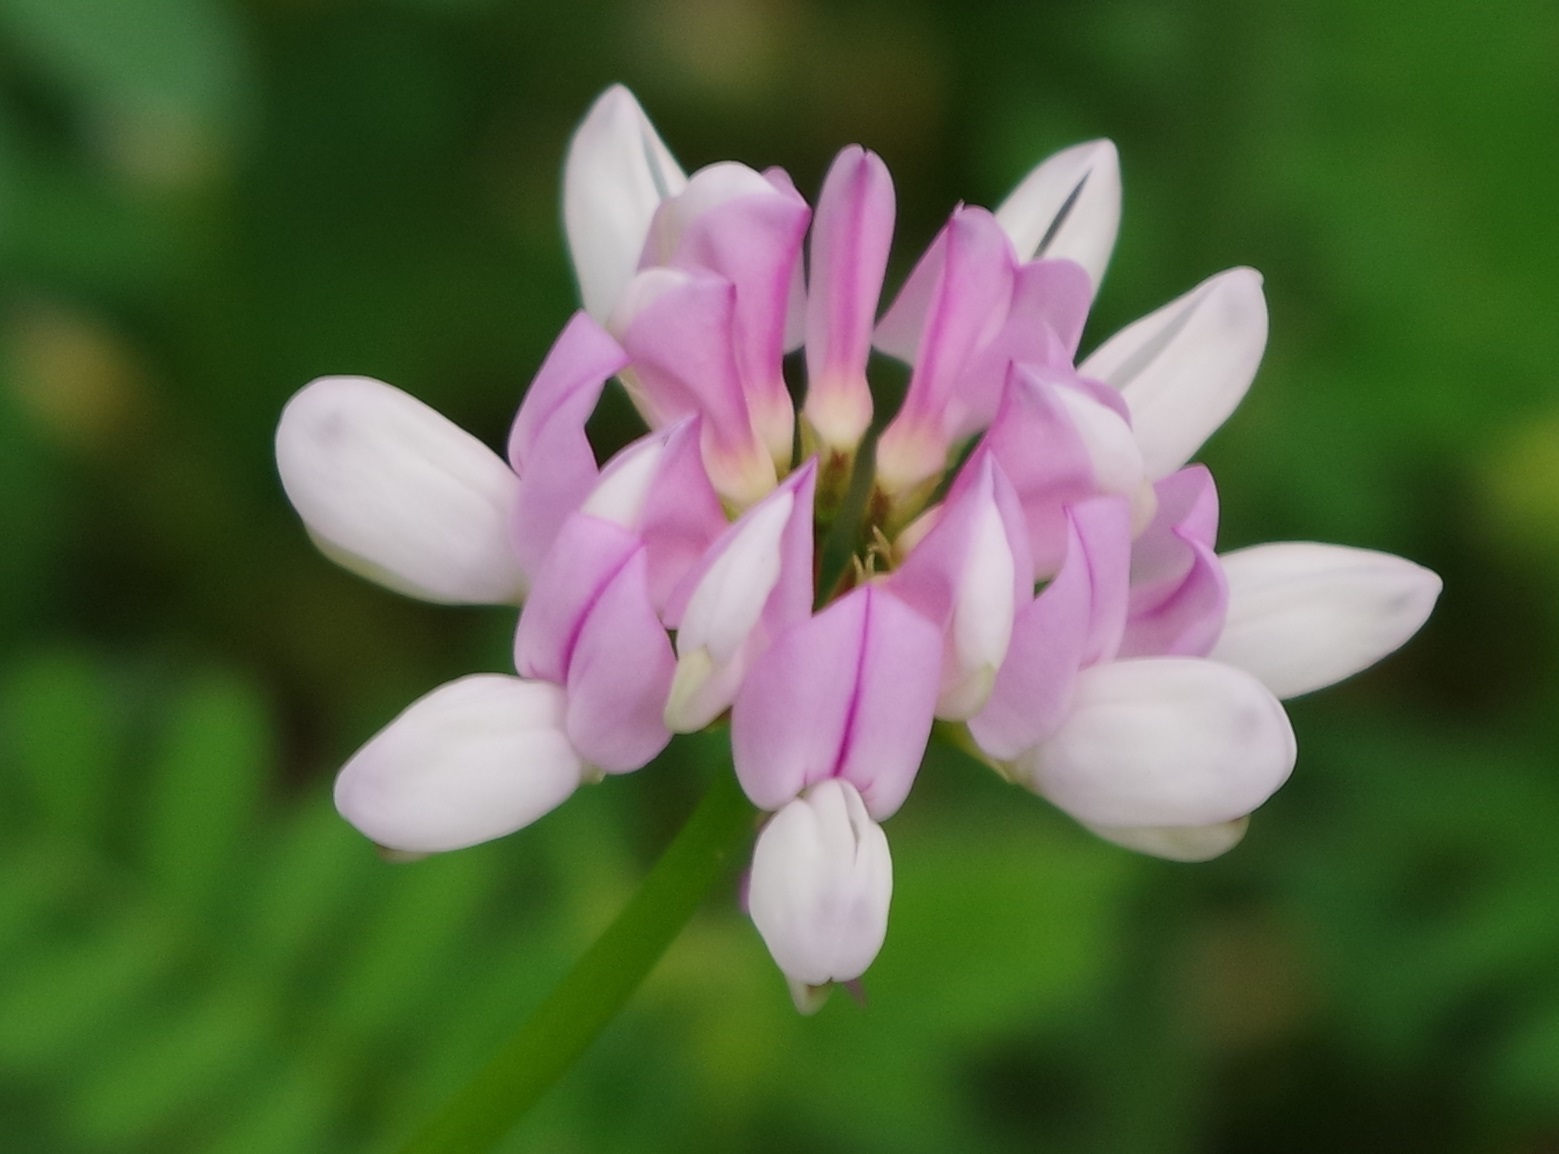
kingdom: Plantae
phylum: Tracheophyta
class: Magnoliopsida
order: Fabales
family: Fabaceae
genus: Coronilla
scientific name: Coronilla varia
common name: Crownvetch
